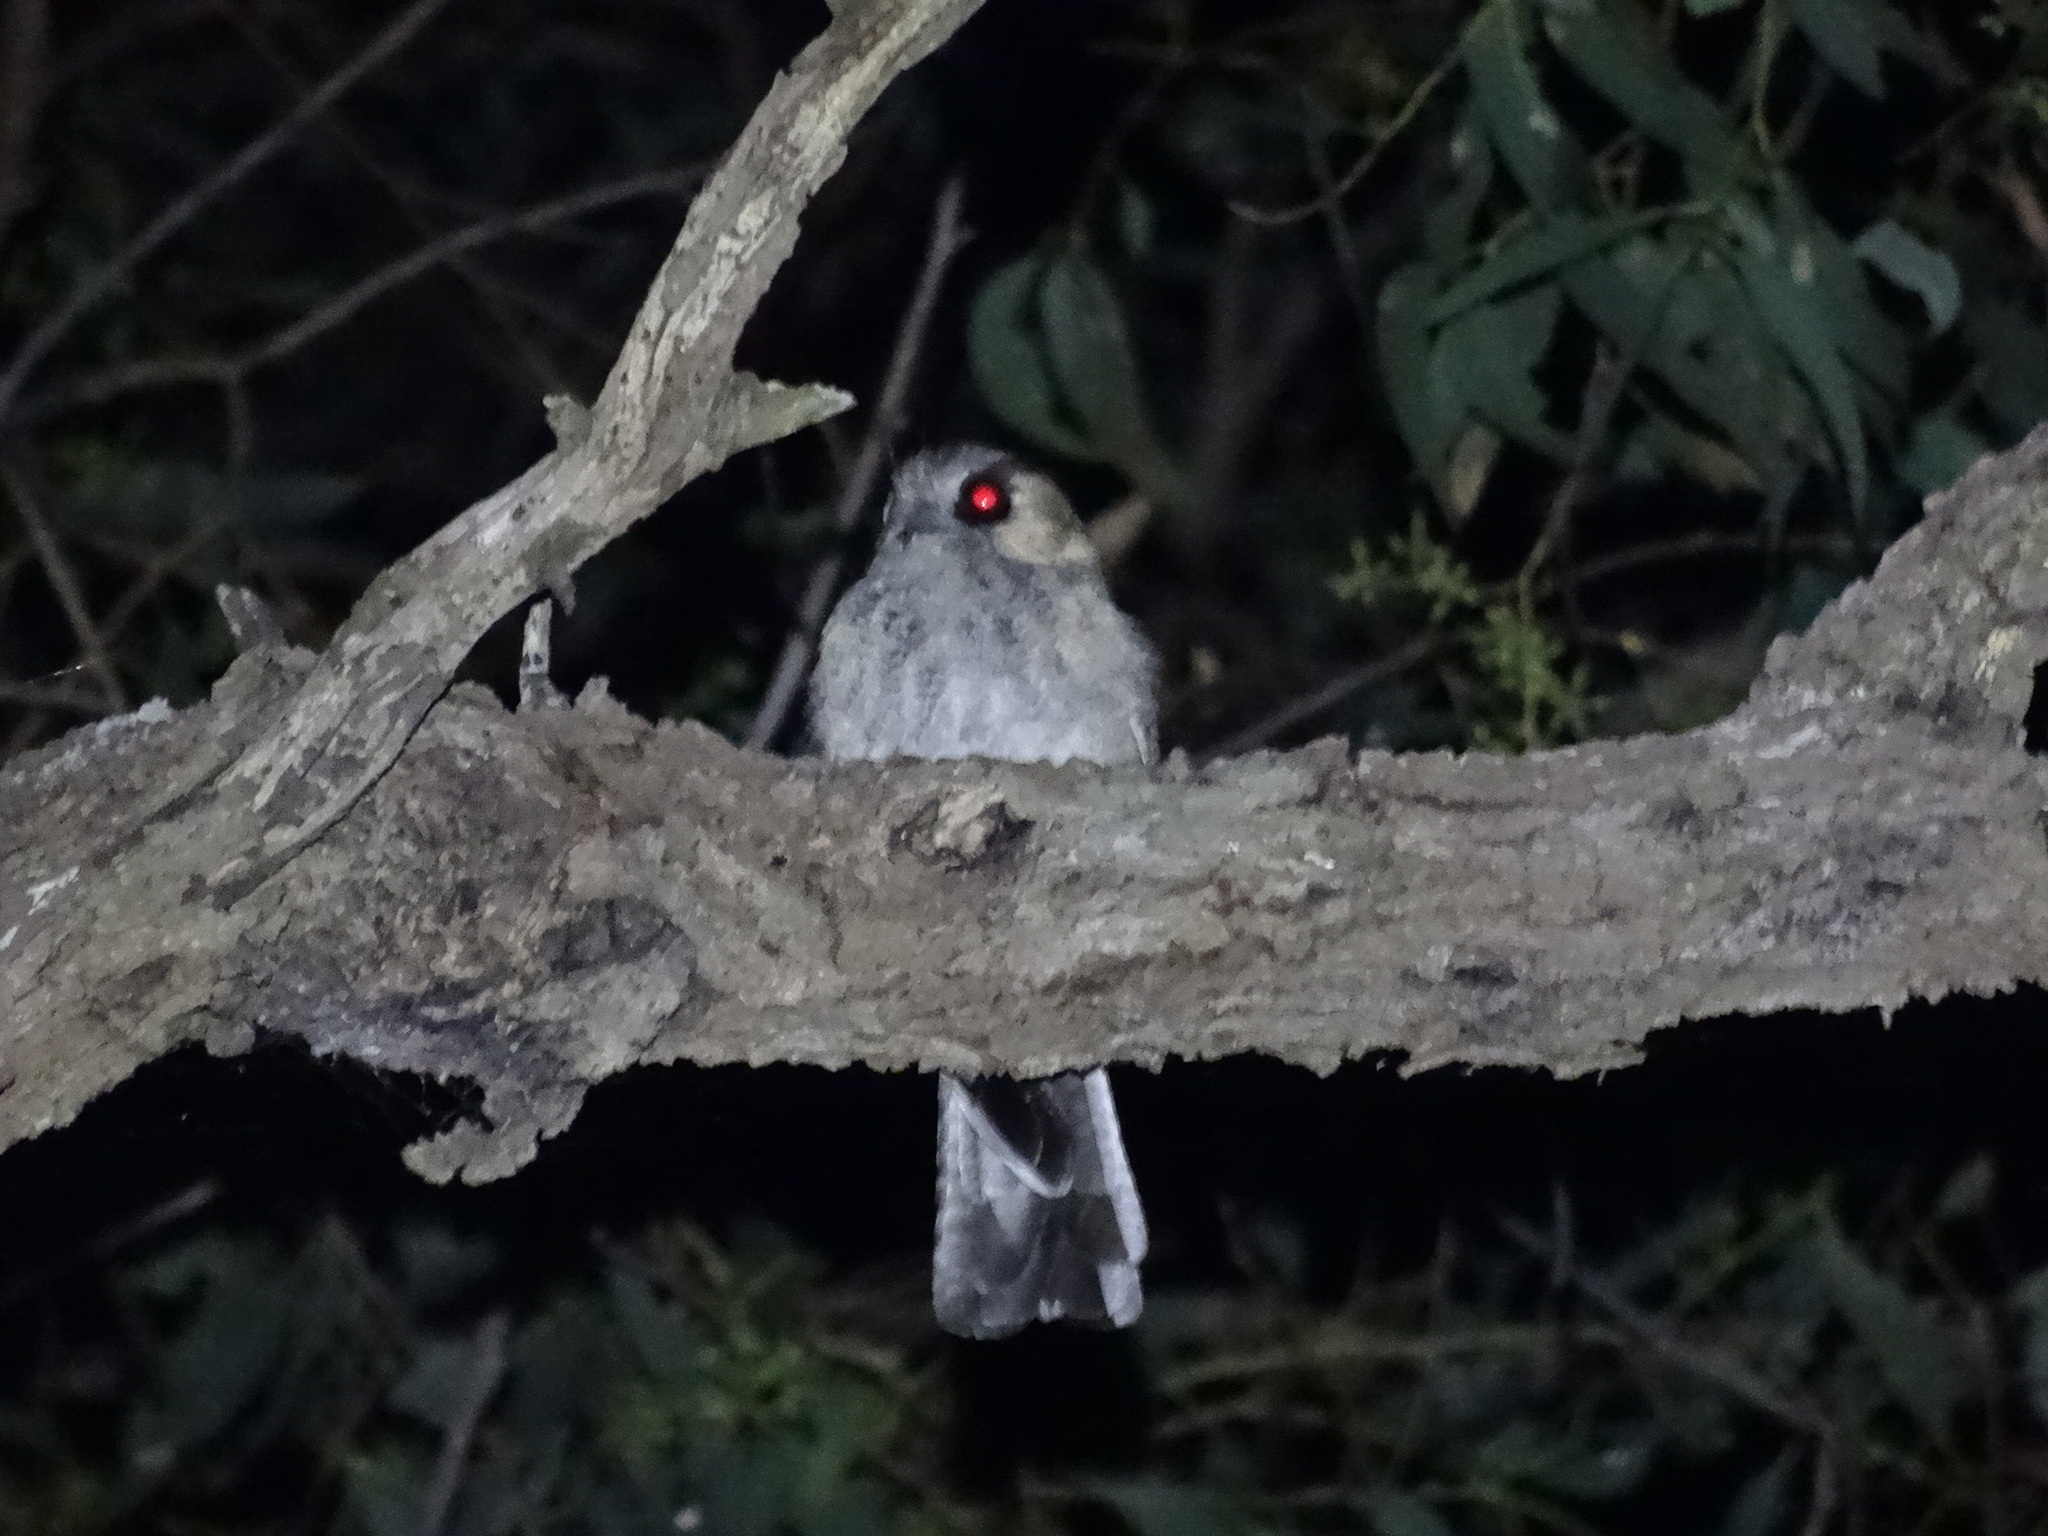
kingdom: Animalia
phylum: Chordata
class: Aves
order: Apodiformes
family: Aegothelidae
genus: Aegotheles
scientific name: Aegotheles cristatus
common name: Australian owlet-nightjar
